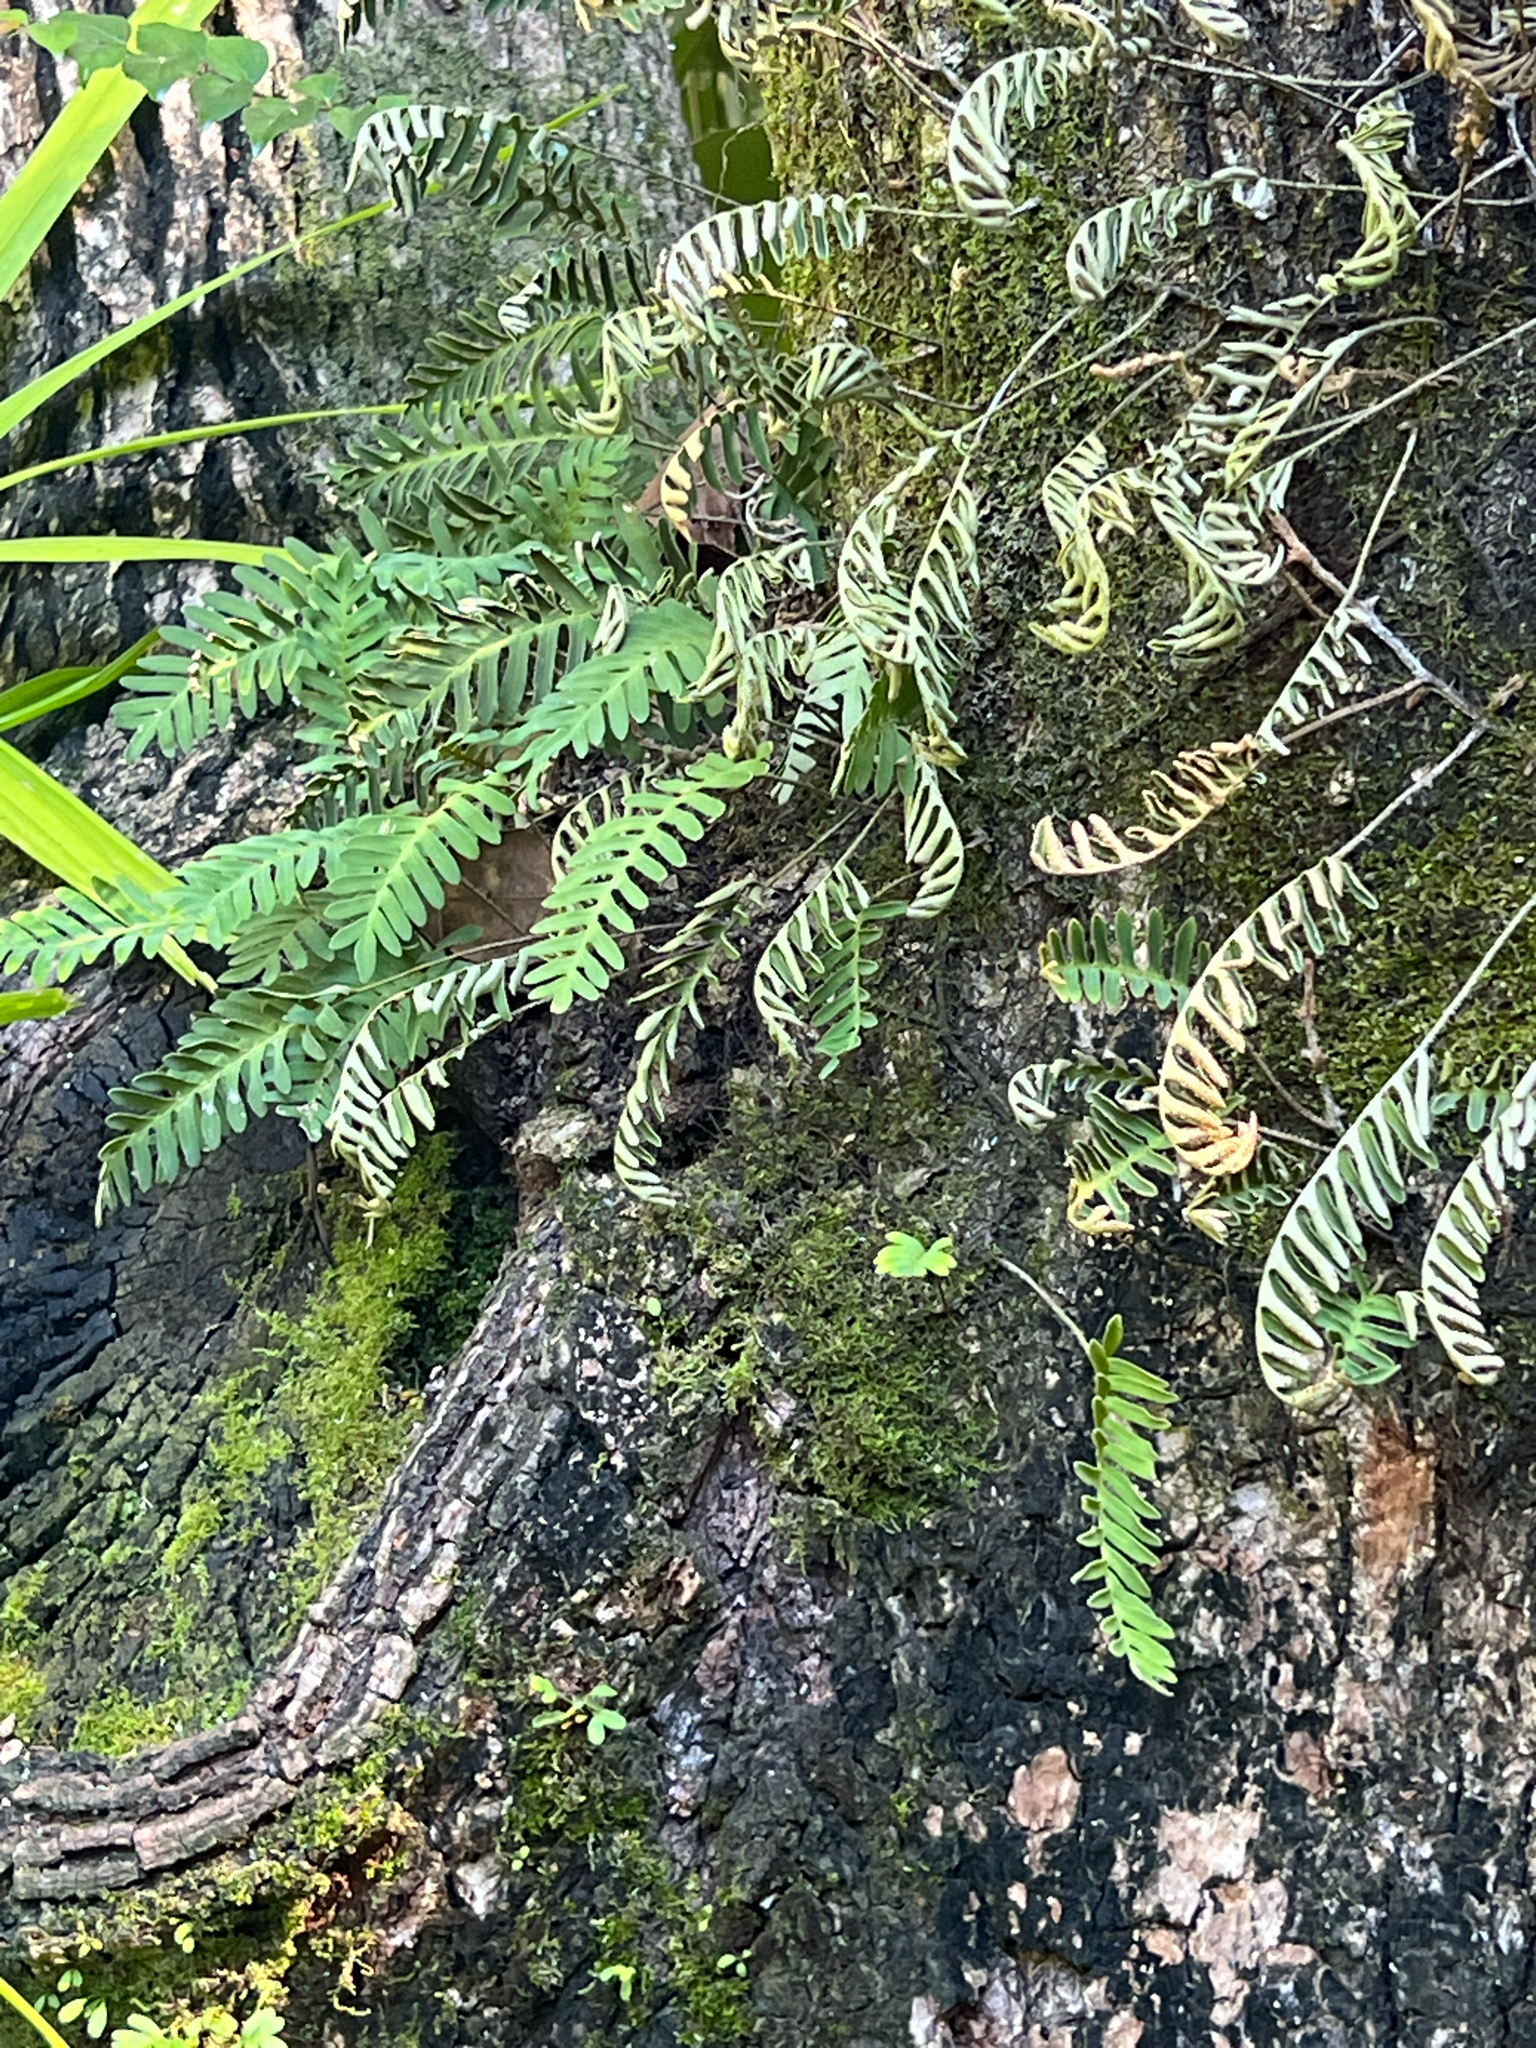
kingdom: Plantae
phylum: Tracheophyta
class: Polypodiopsida
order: Polypodiales
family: Polypodiaceae
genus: Pleopeltis
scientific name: Pleopeltis michauxiana
